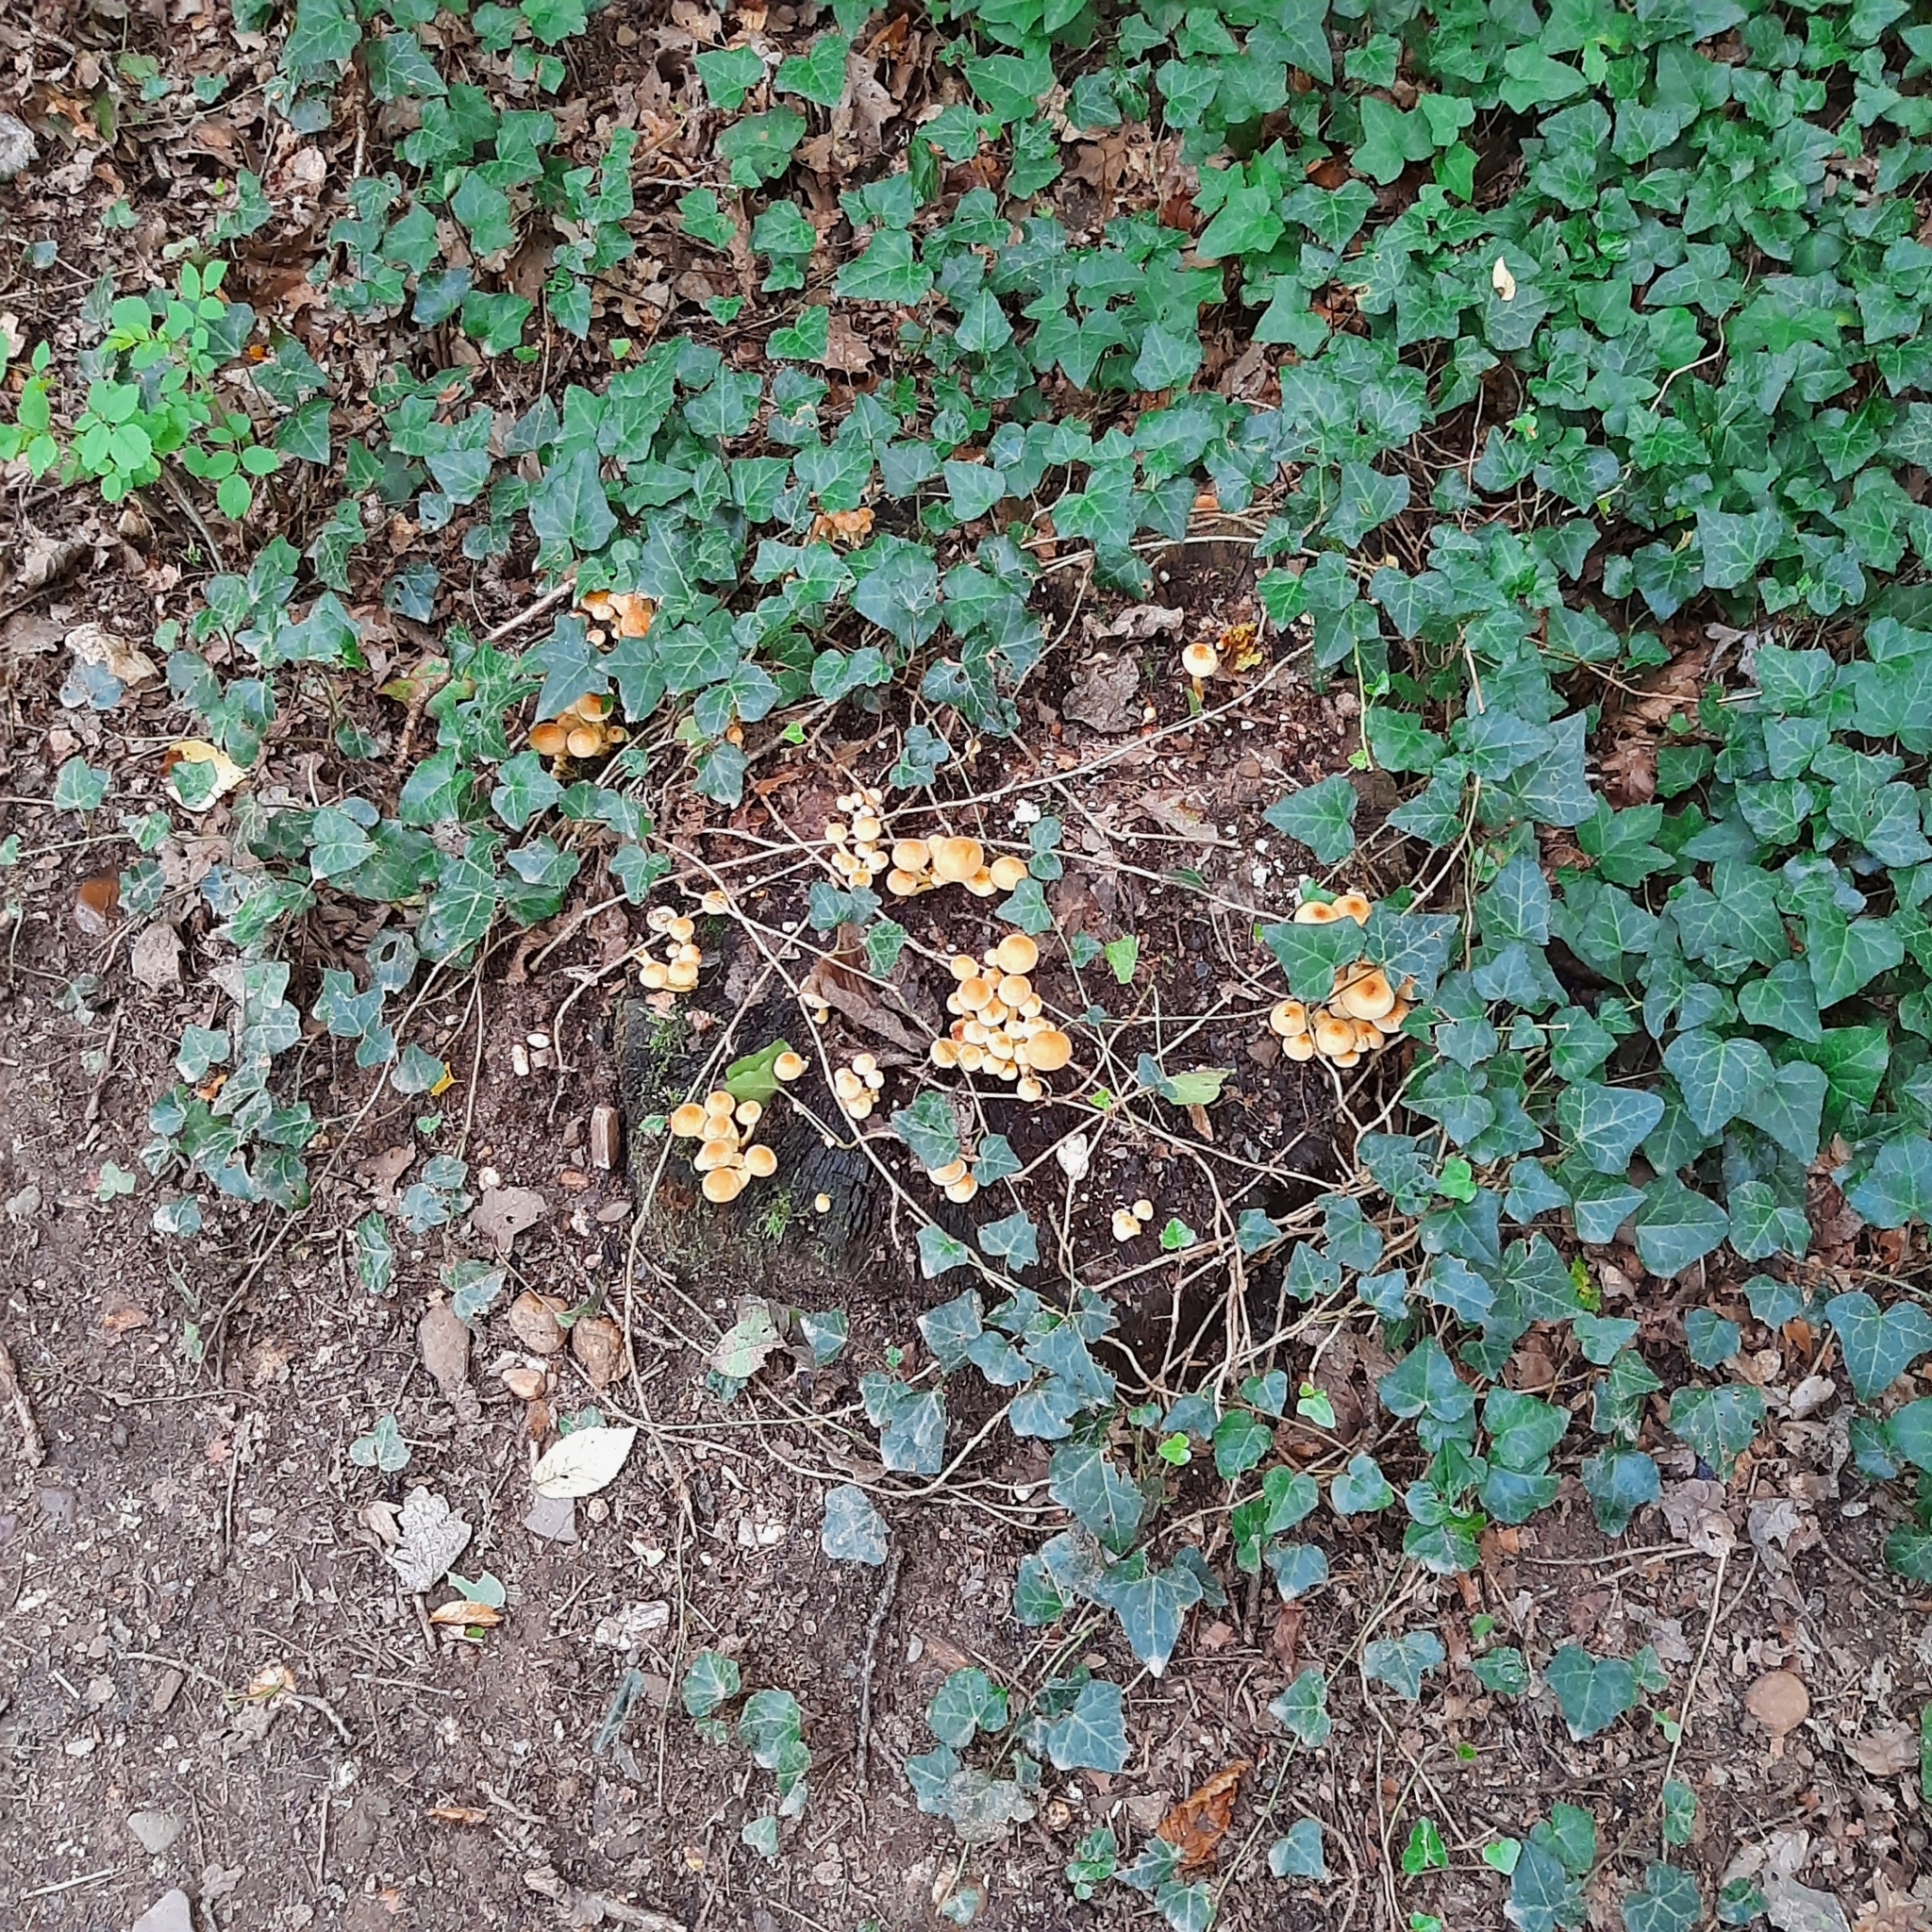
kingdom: Fungi
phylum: Basidiomycota
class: Agaricomycetes
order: Agaricales
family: Strophariaceae
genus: Hypholoma
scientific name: Hypholoma fasciculare
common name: Sulphur tuft
